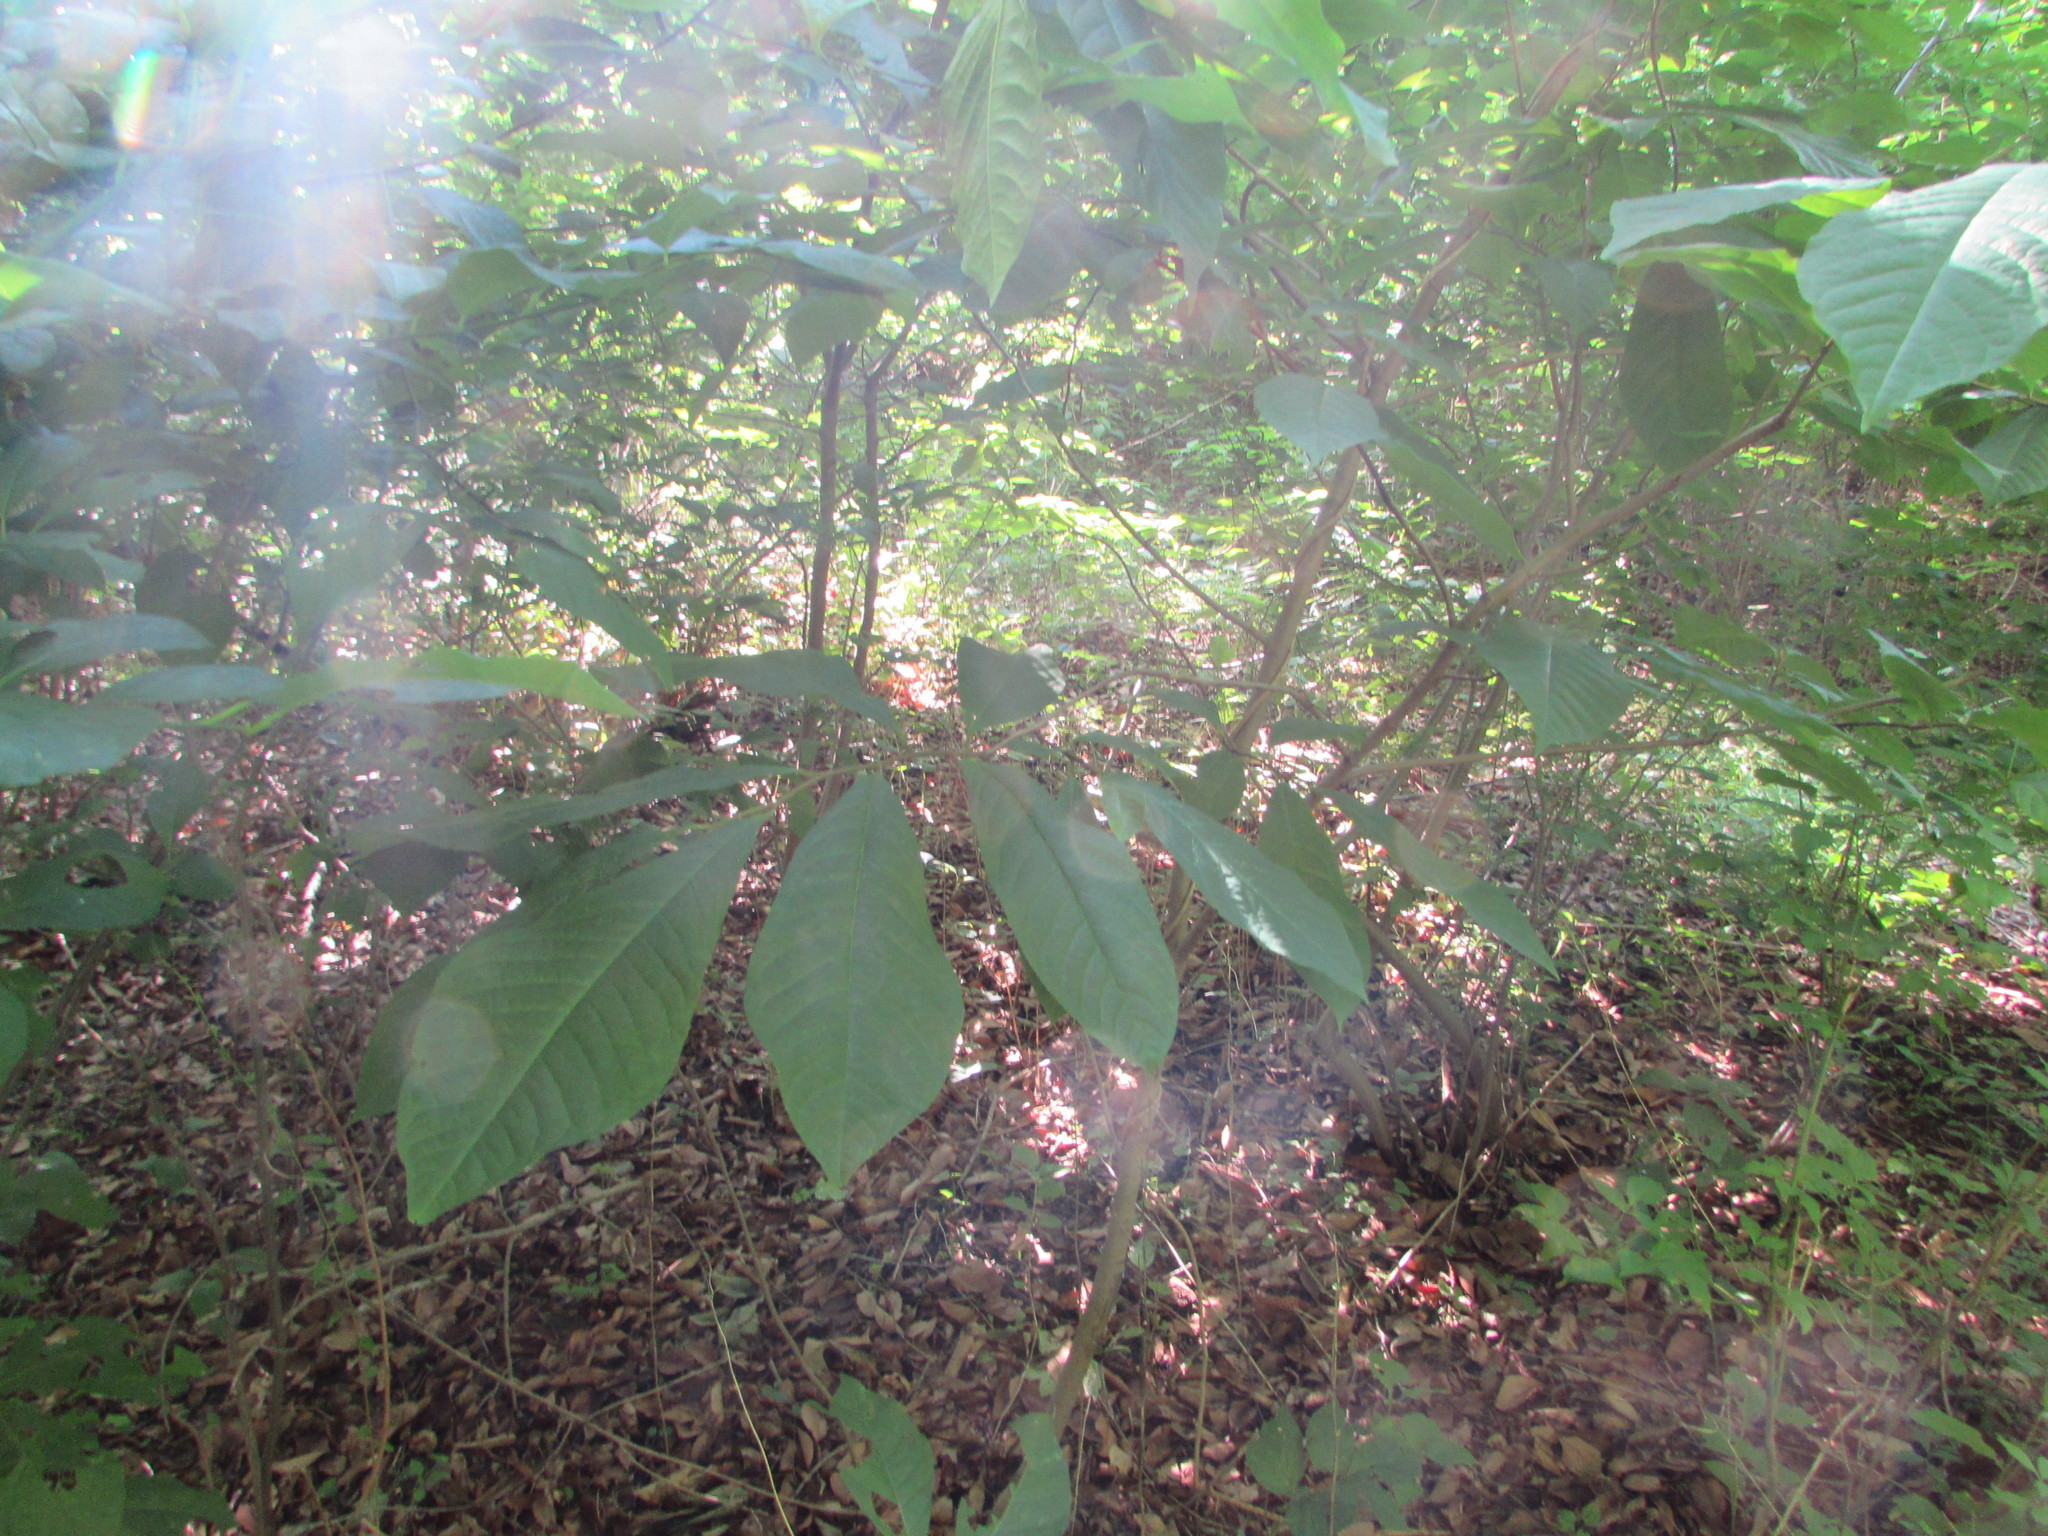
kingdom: Plantae
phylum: Tracheophyta
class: Magnoliopsida
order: Magnoliales
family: Annonaceae
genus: Asimina
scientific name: Asimina triloba
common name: Dog-banana
